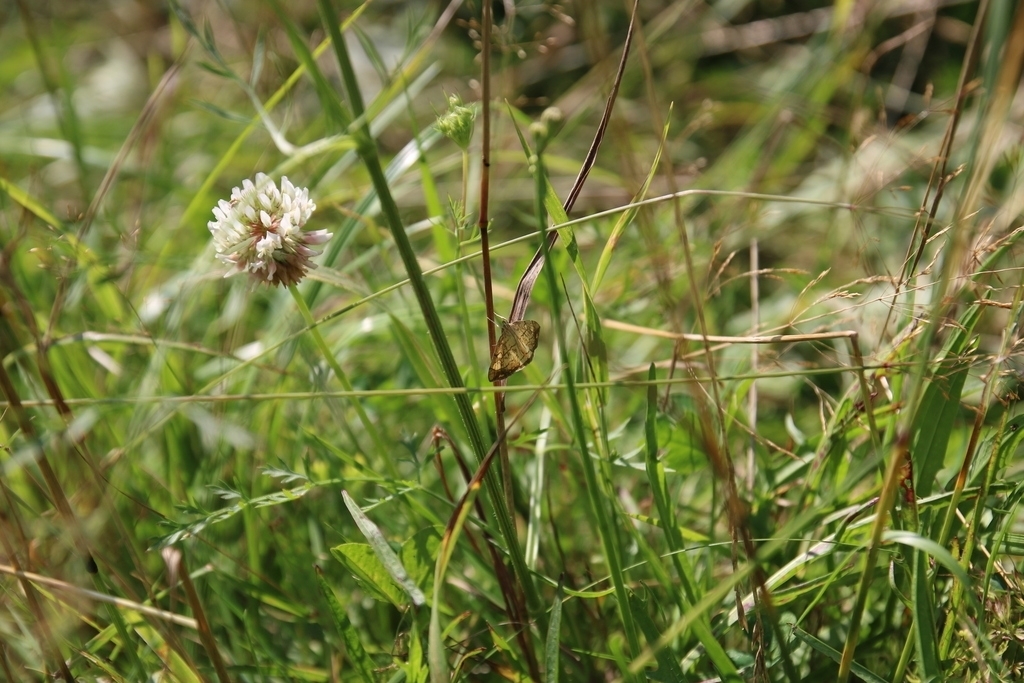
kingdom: Plantae
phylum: Tracheophyta
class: Magnoliopsida
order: Fabales
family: Fabaceae
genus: Trifolium
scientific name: Trifolium repens
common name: White clover
